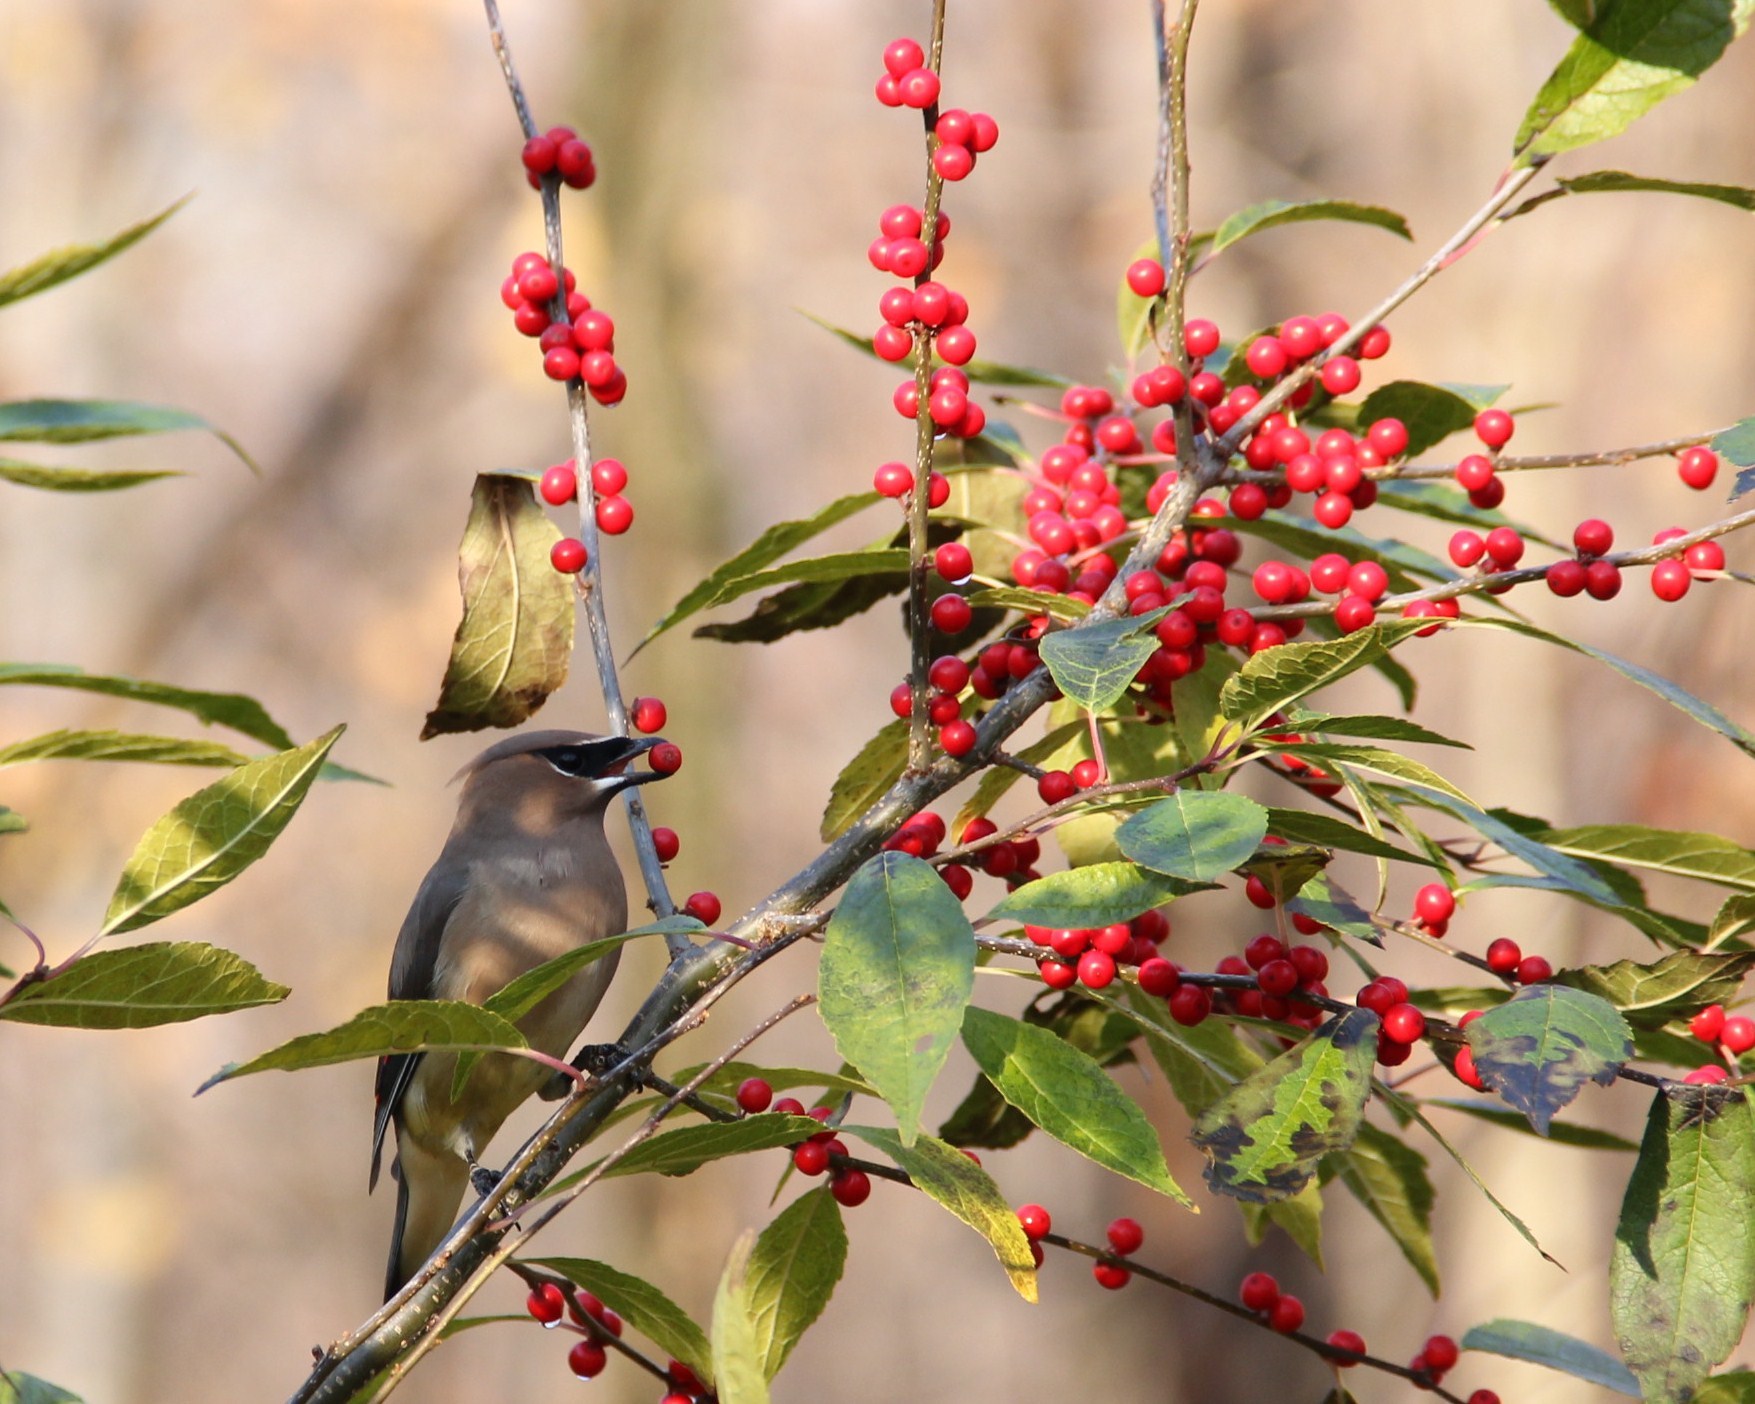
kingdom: Animalia
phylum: Chordata
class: Aves
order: Passeriformes
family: Bombycillidae
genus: Bombycilla
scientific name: Bombycilla cedrorum
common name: Cedar waxwing
